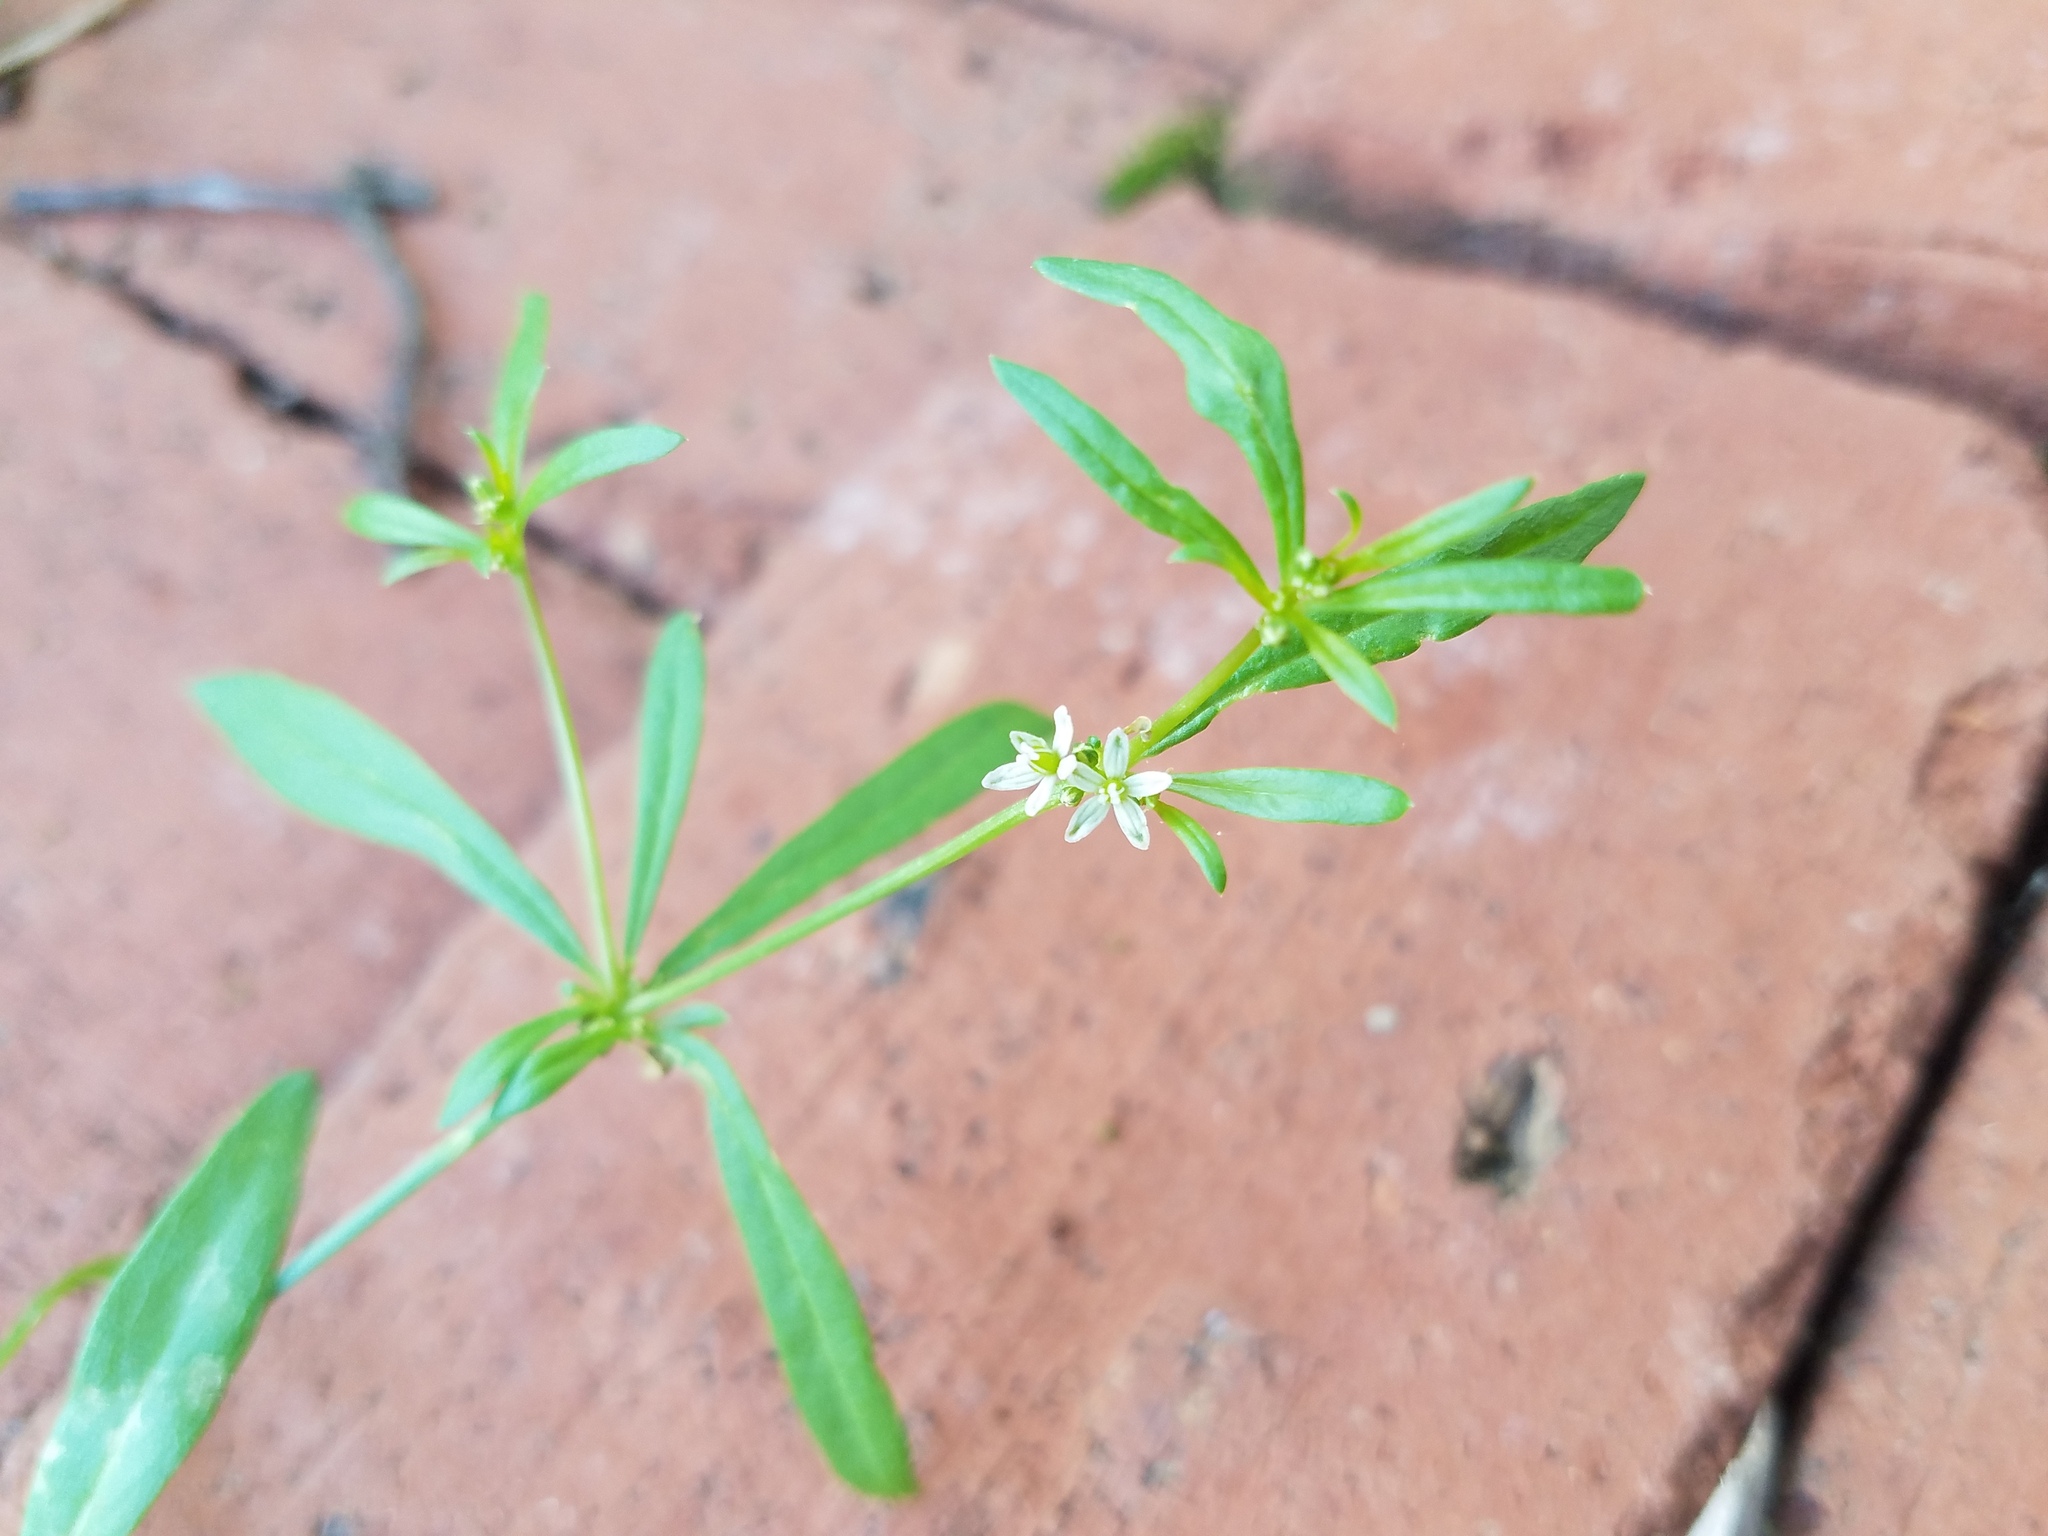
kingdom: Plantae
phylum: Tracheophyta
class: Magnoliopsida
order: Caryophyllales
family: Molluginaceae
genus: Mollugo
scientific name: Mollugo verticillata
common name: Green carpetweed
